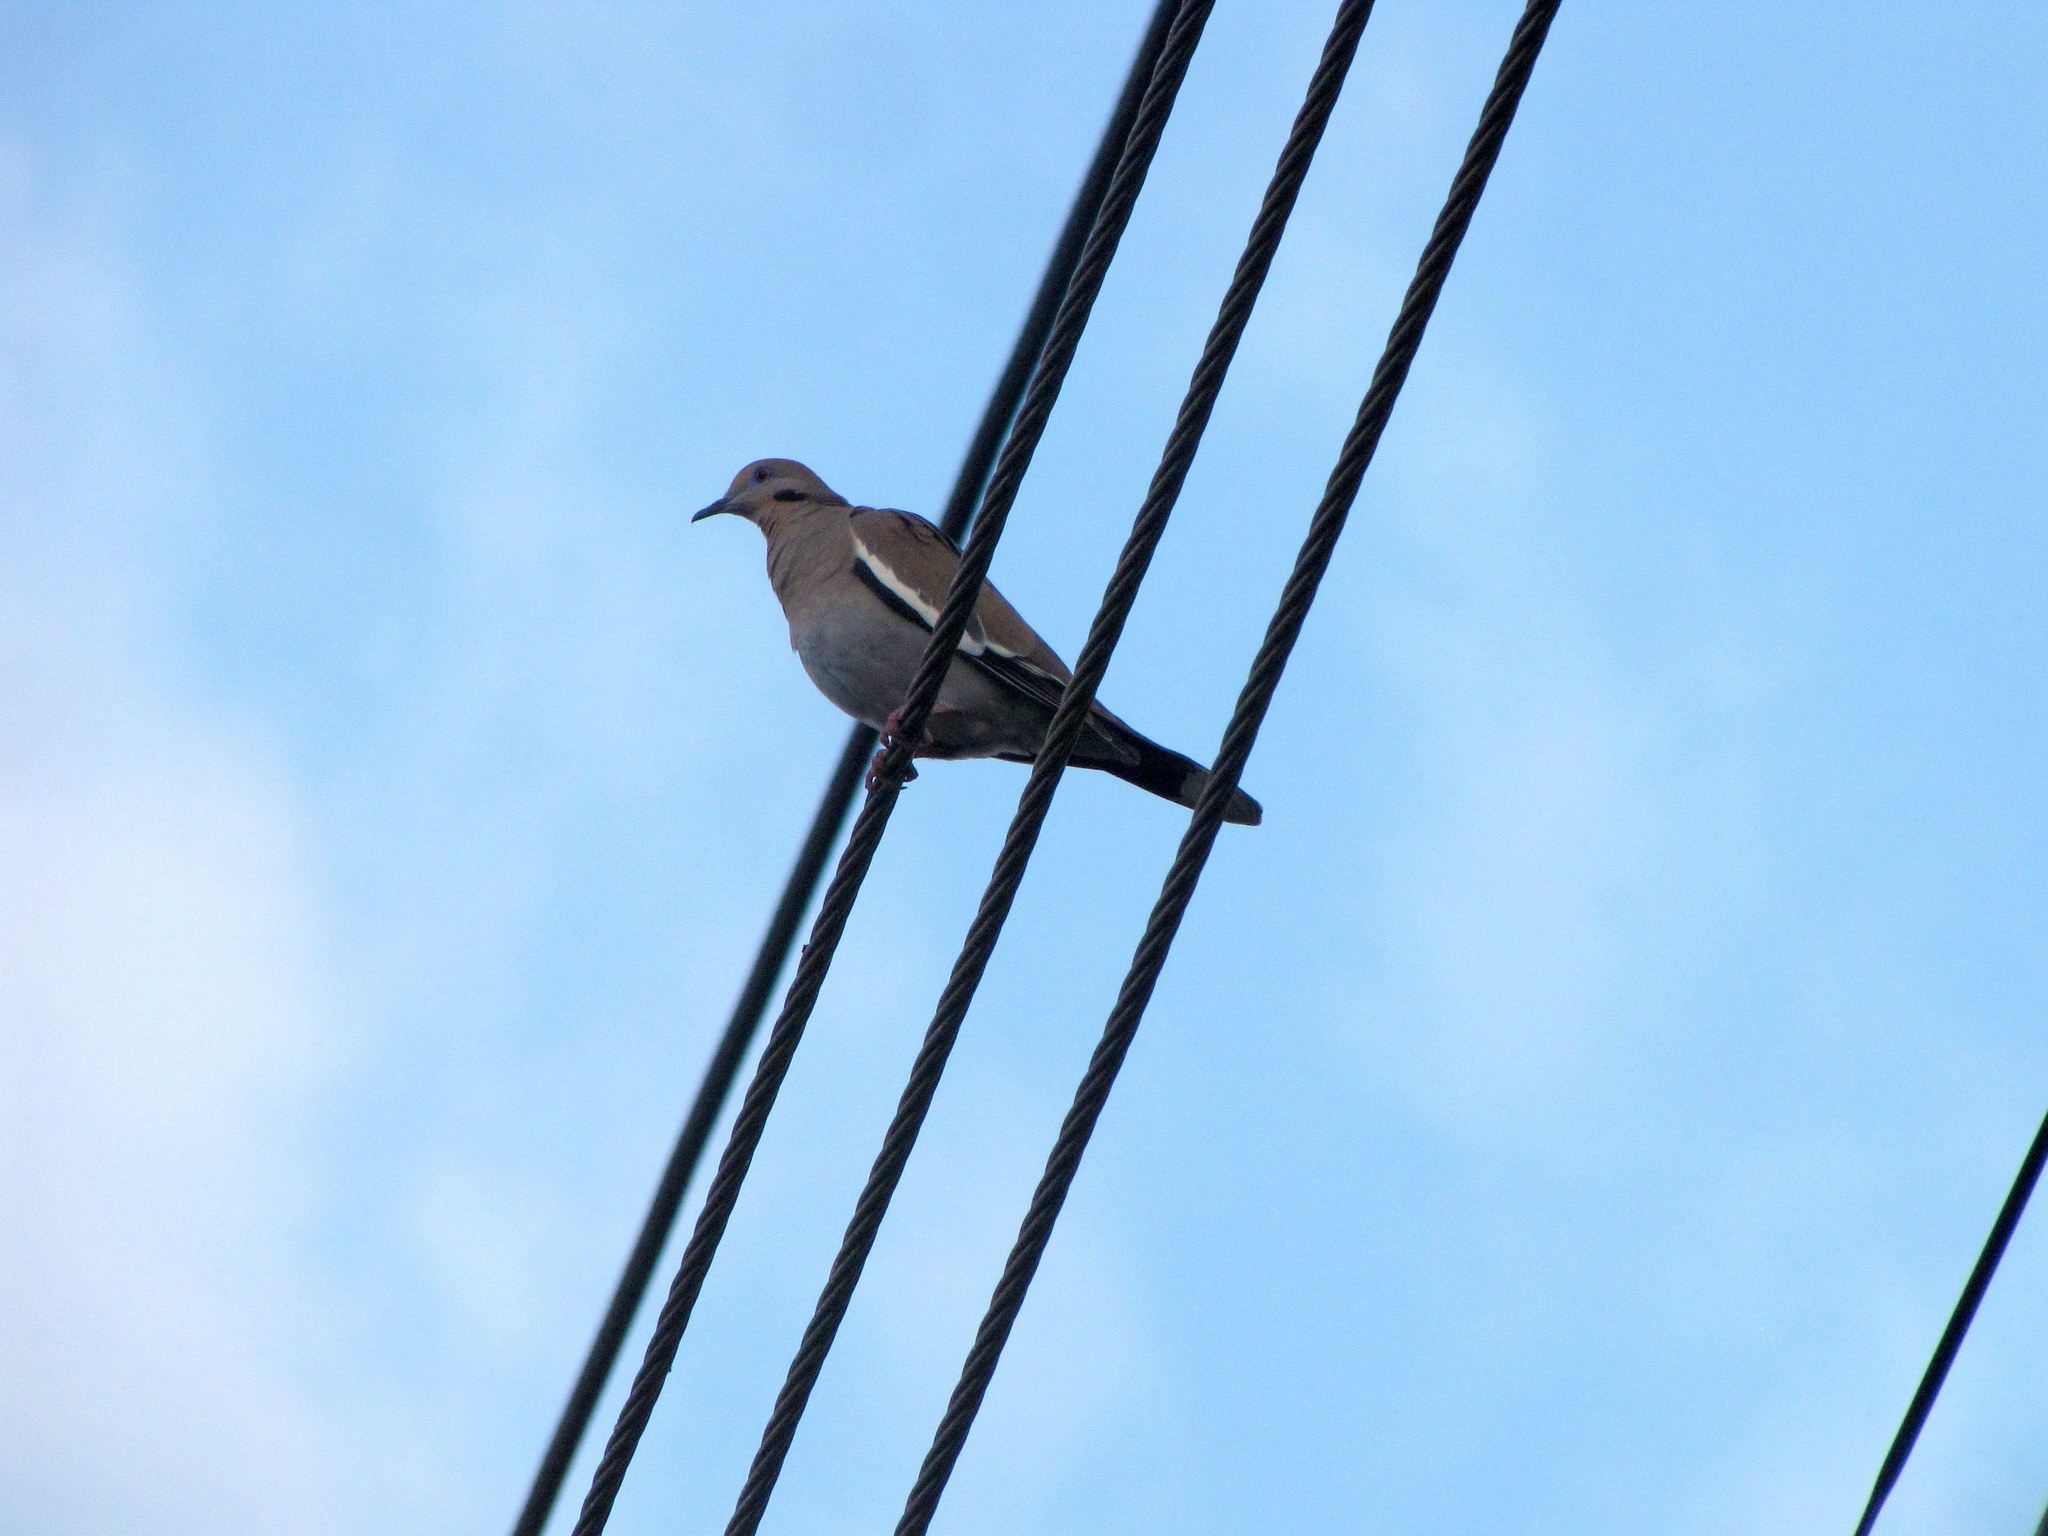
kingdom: Animalia
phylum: Chordata
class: Aves
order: Columbiformes
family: Columbidae
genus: Zenaida
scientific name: Zenaida asiatica
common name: White-winged dove
